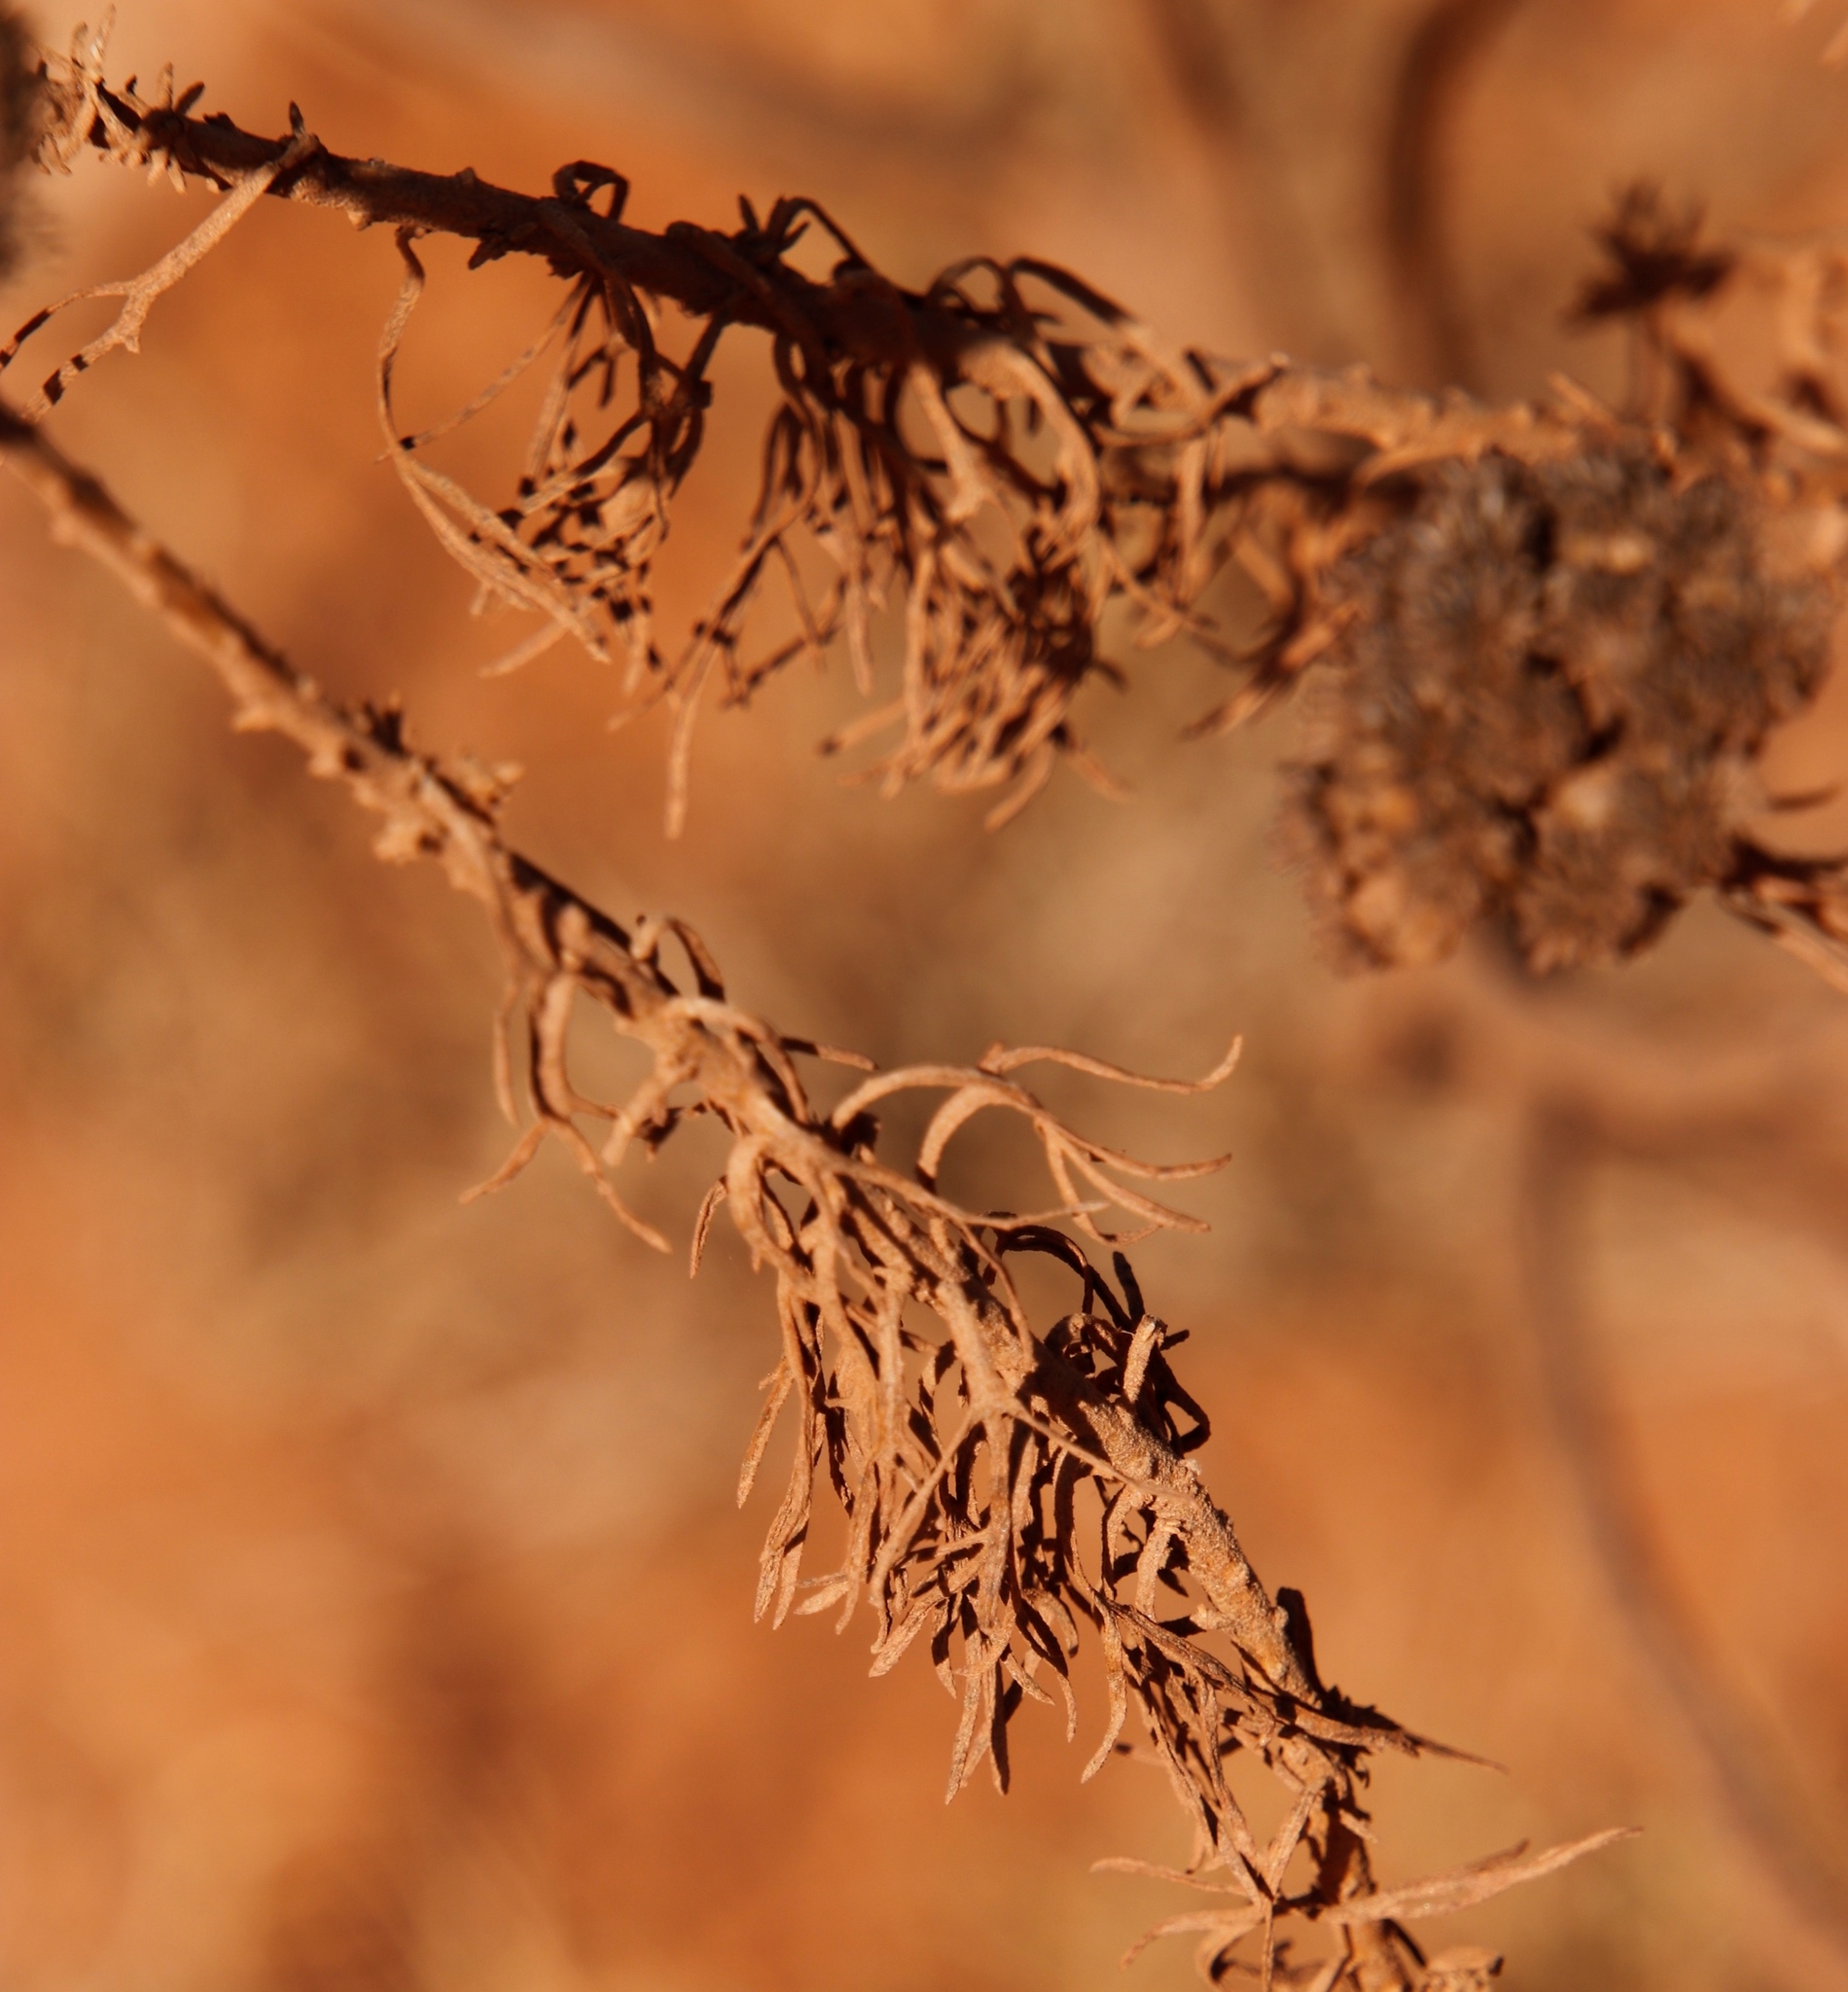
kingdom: Plantae
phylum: Tracheophyta
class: Magnoliopsida
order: Asterales
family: Asteraceae
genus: Athanasia
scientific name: Athanasia trifurcata
